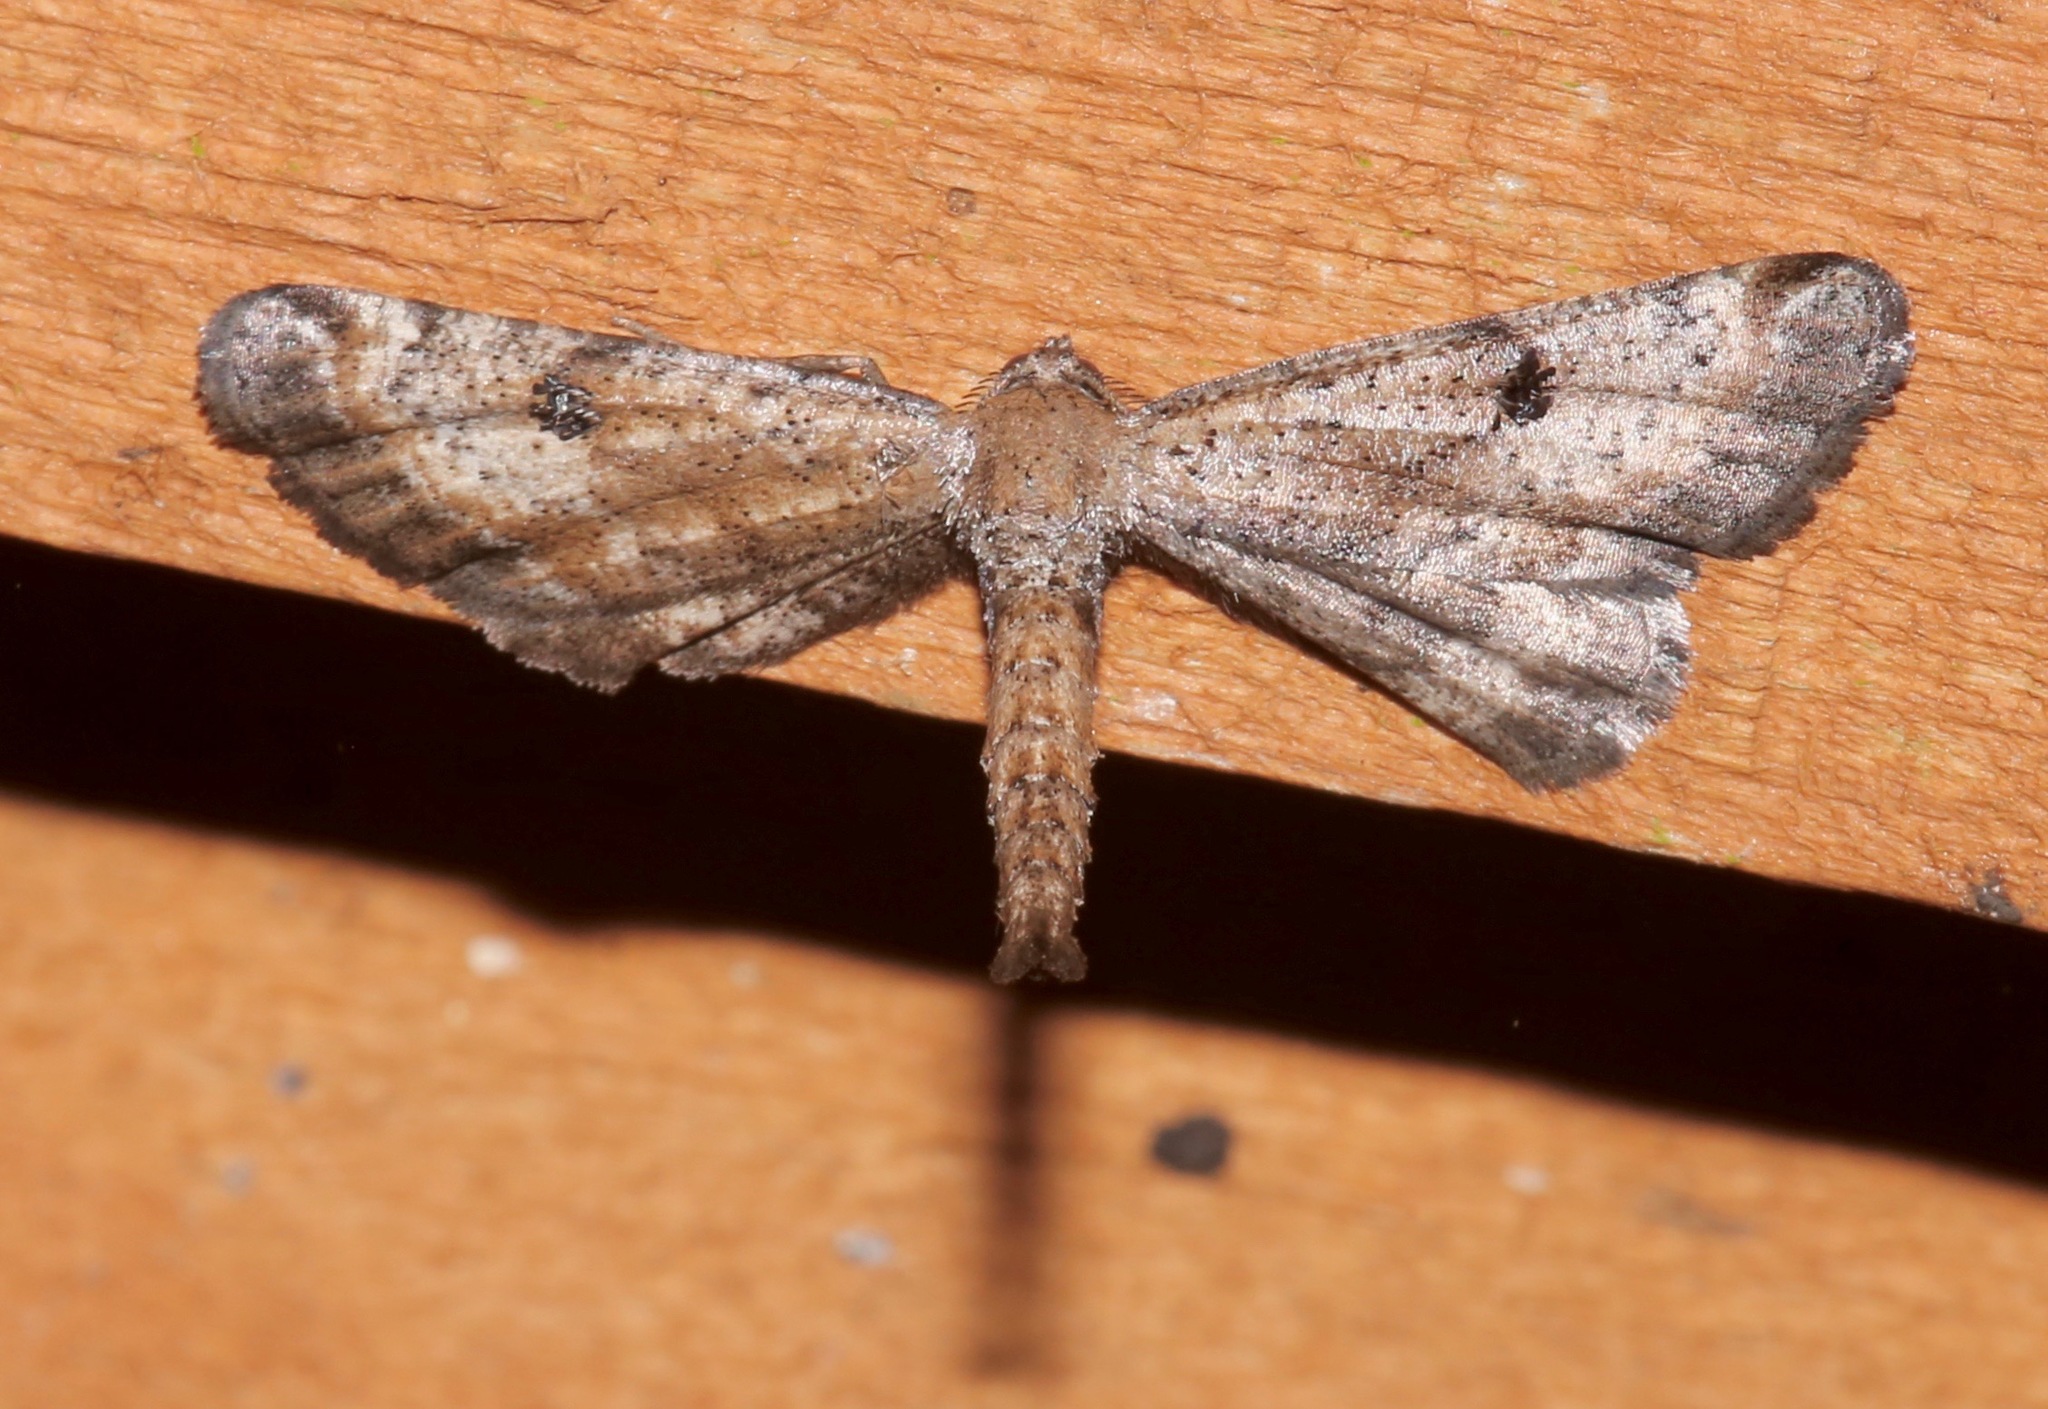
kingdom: Animalia
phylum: Arthropoda
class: Insecta
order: Lepidoptera
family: Geometridae
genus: Tornos
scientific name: Tornos scolopacinaria
